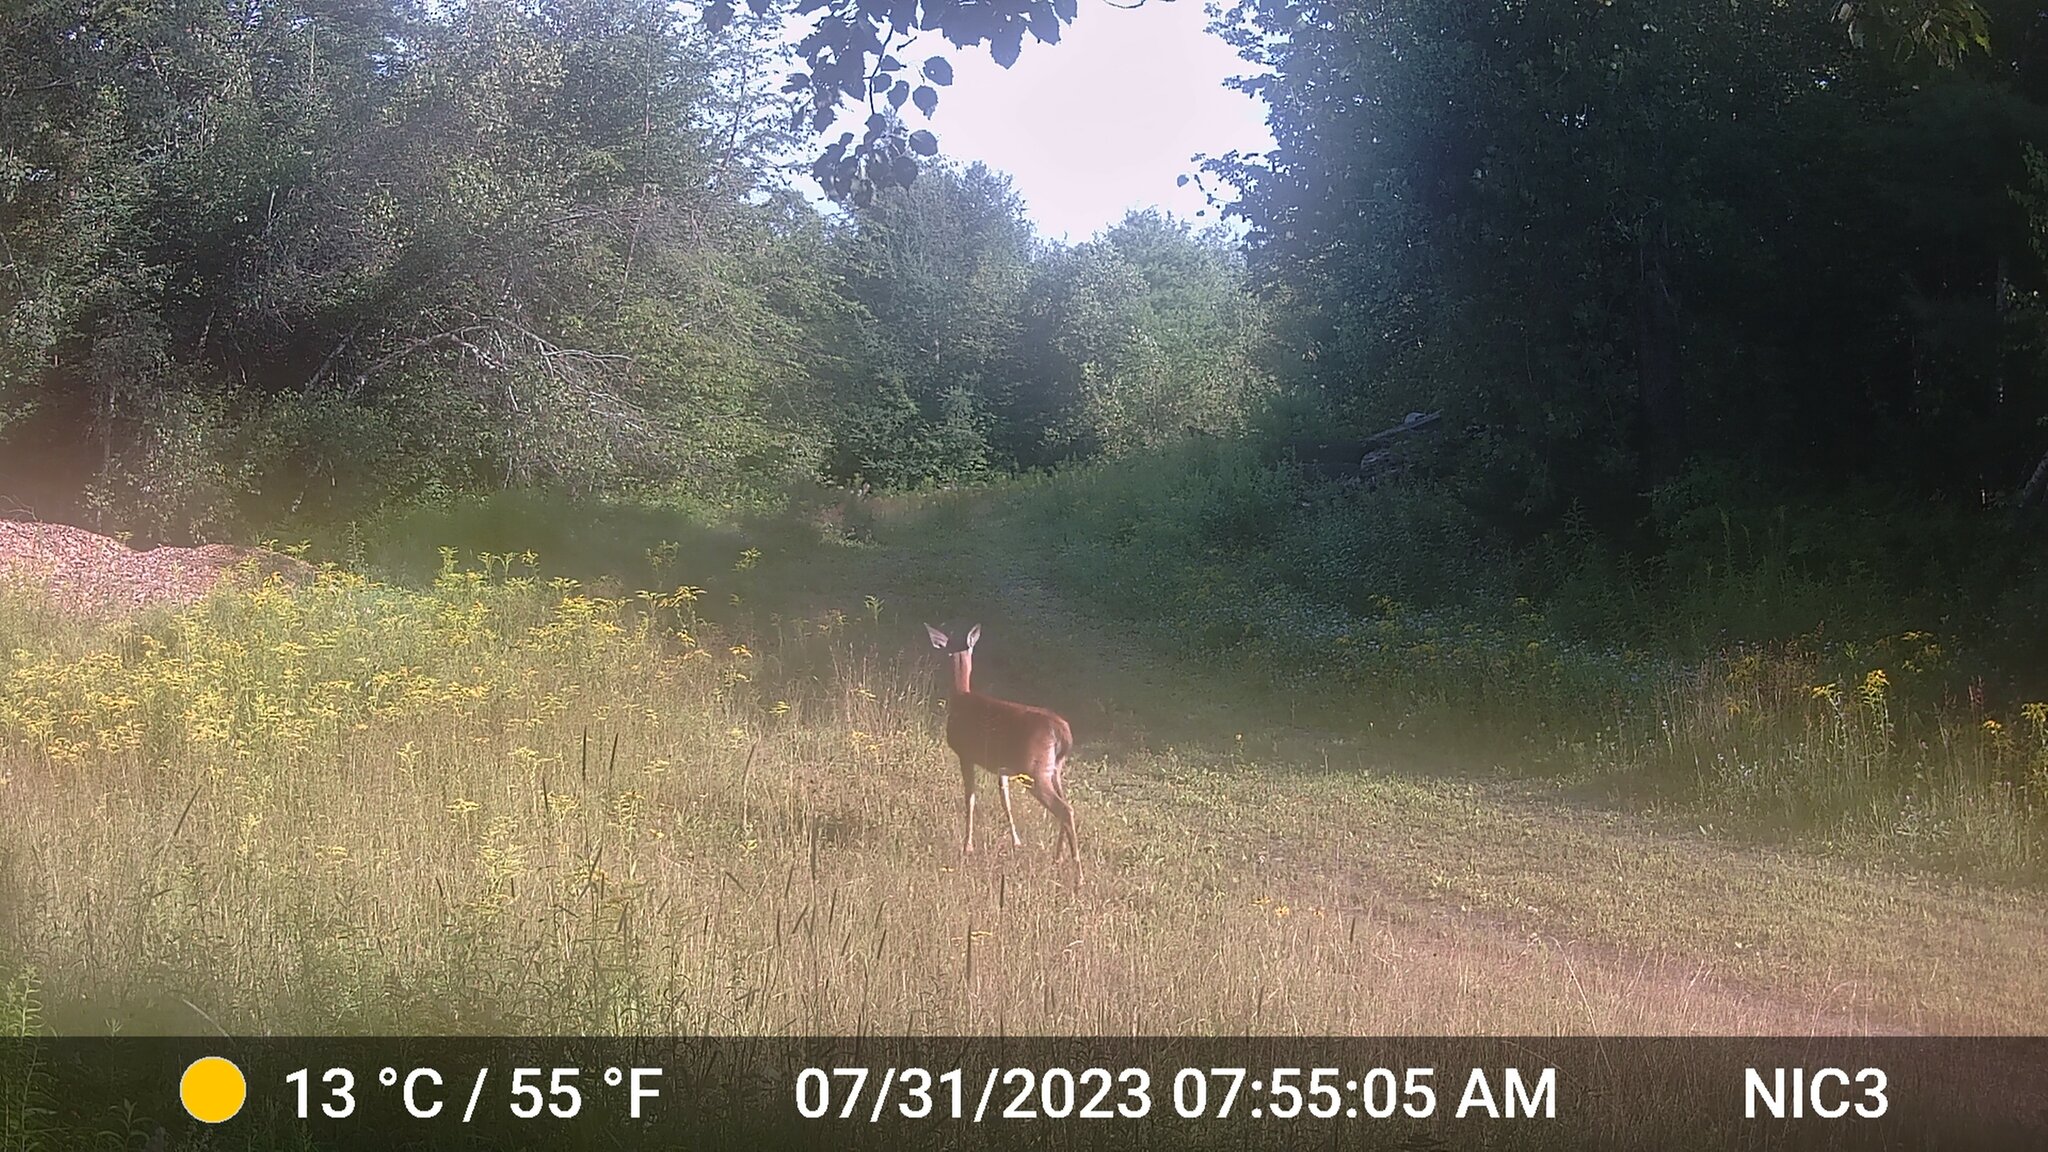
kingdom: Animalia
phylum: Chordata
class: Mammalia
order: Artiodactyla
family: Cervidae
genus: Odocoileus
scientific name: Odocoileus virginianus
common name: White-tailed deer
